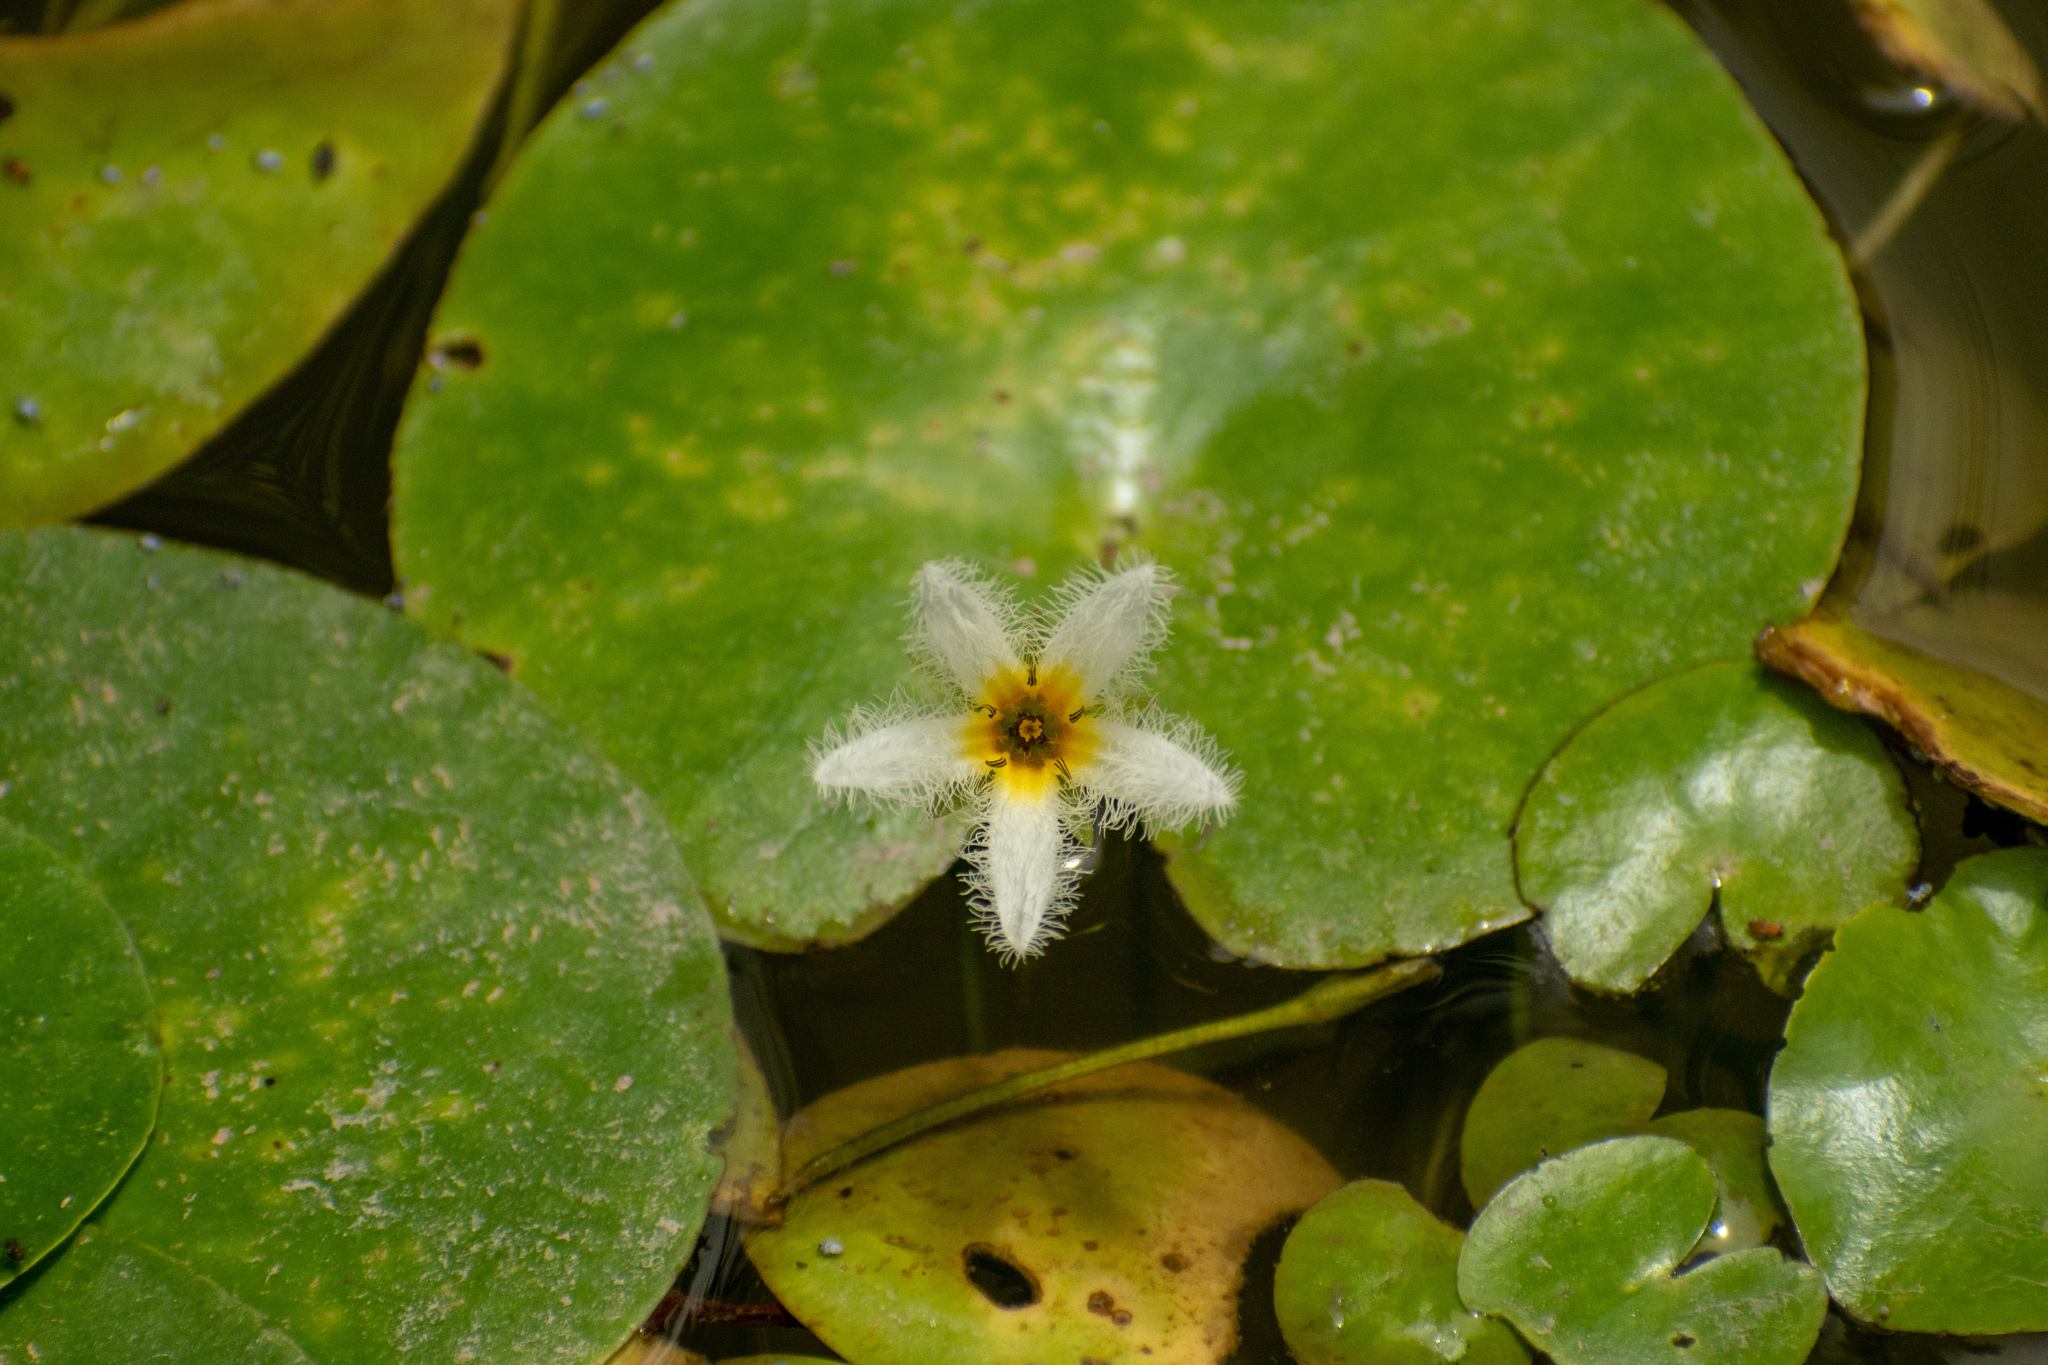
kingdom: Plantae
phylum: Tracheophyta
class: Magnoliopsida
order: Asterales
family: Menyanthaceae
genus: Nymphoides
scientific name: Nymphoides humboldtiana
